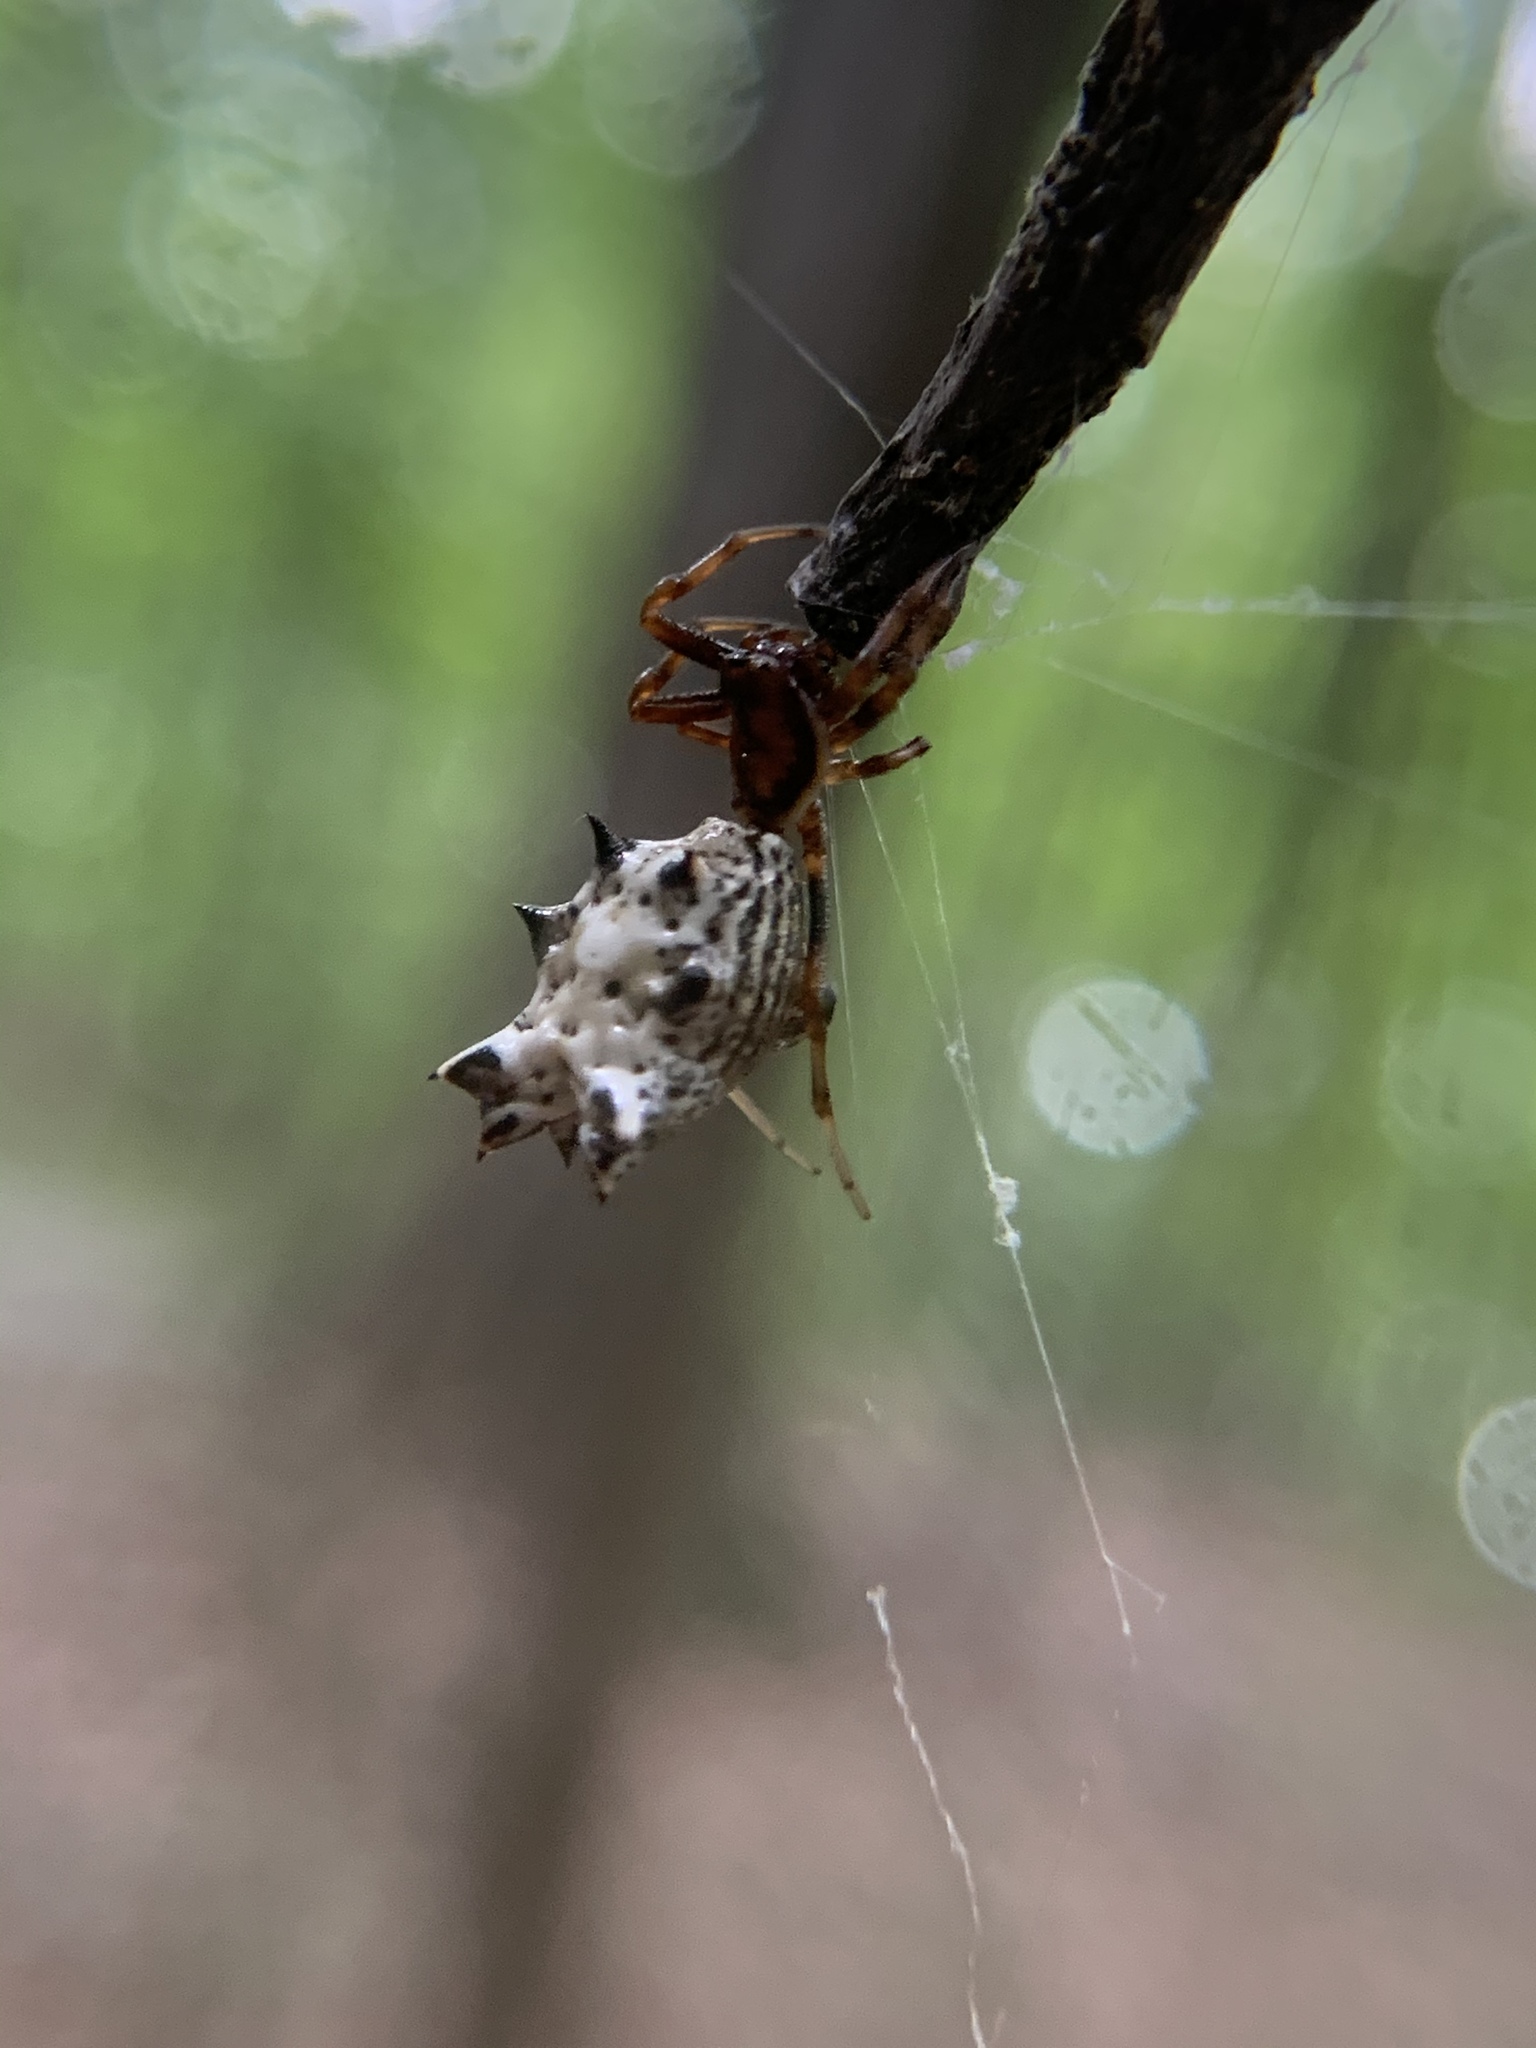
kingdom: Animalia
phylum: Arthropoda
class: Arachnida
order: Araneae
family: Araneidae
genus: Micrathena
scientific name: Micrathena gracilis
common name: Orb weavers
